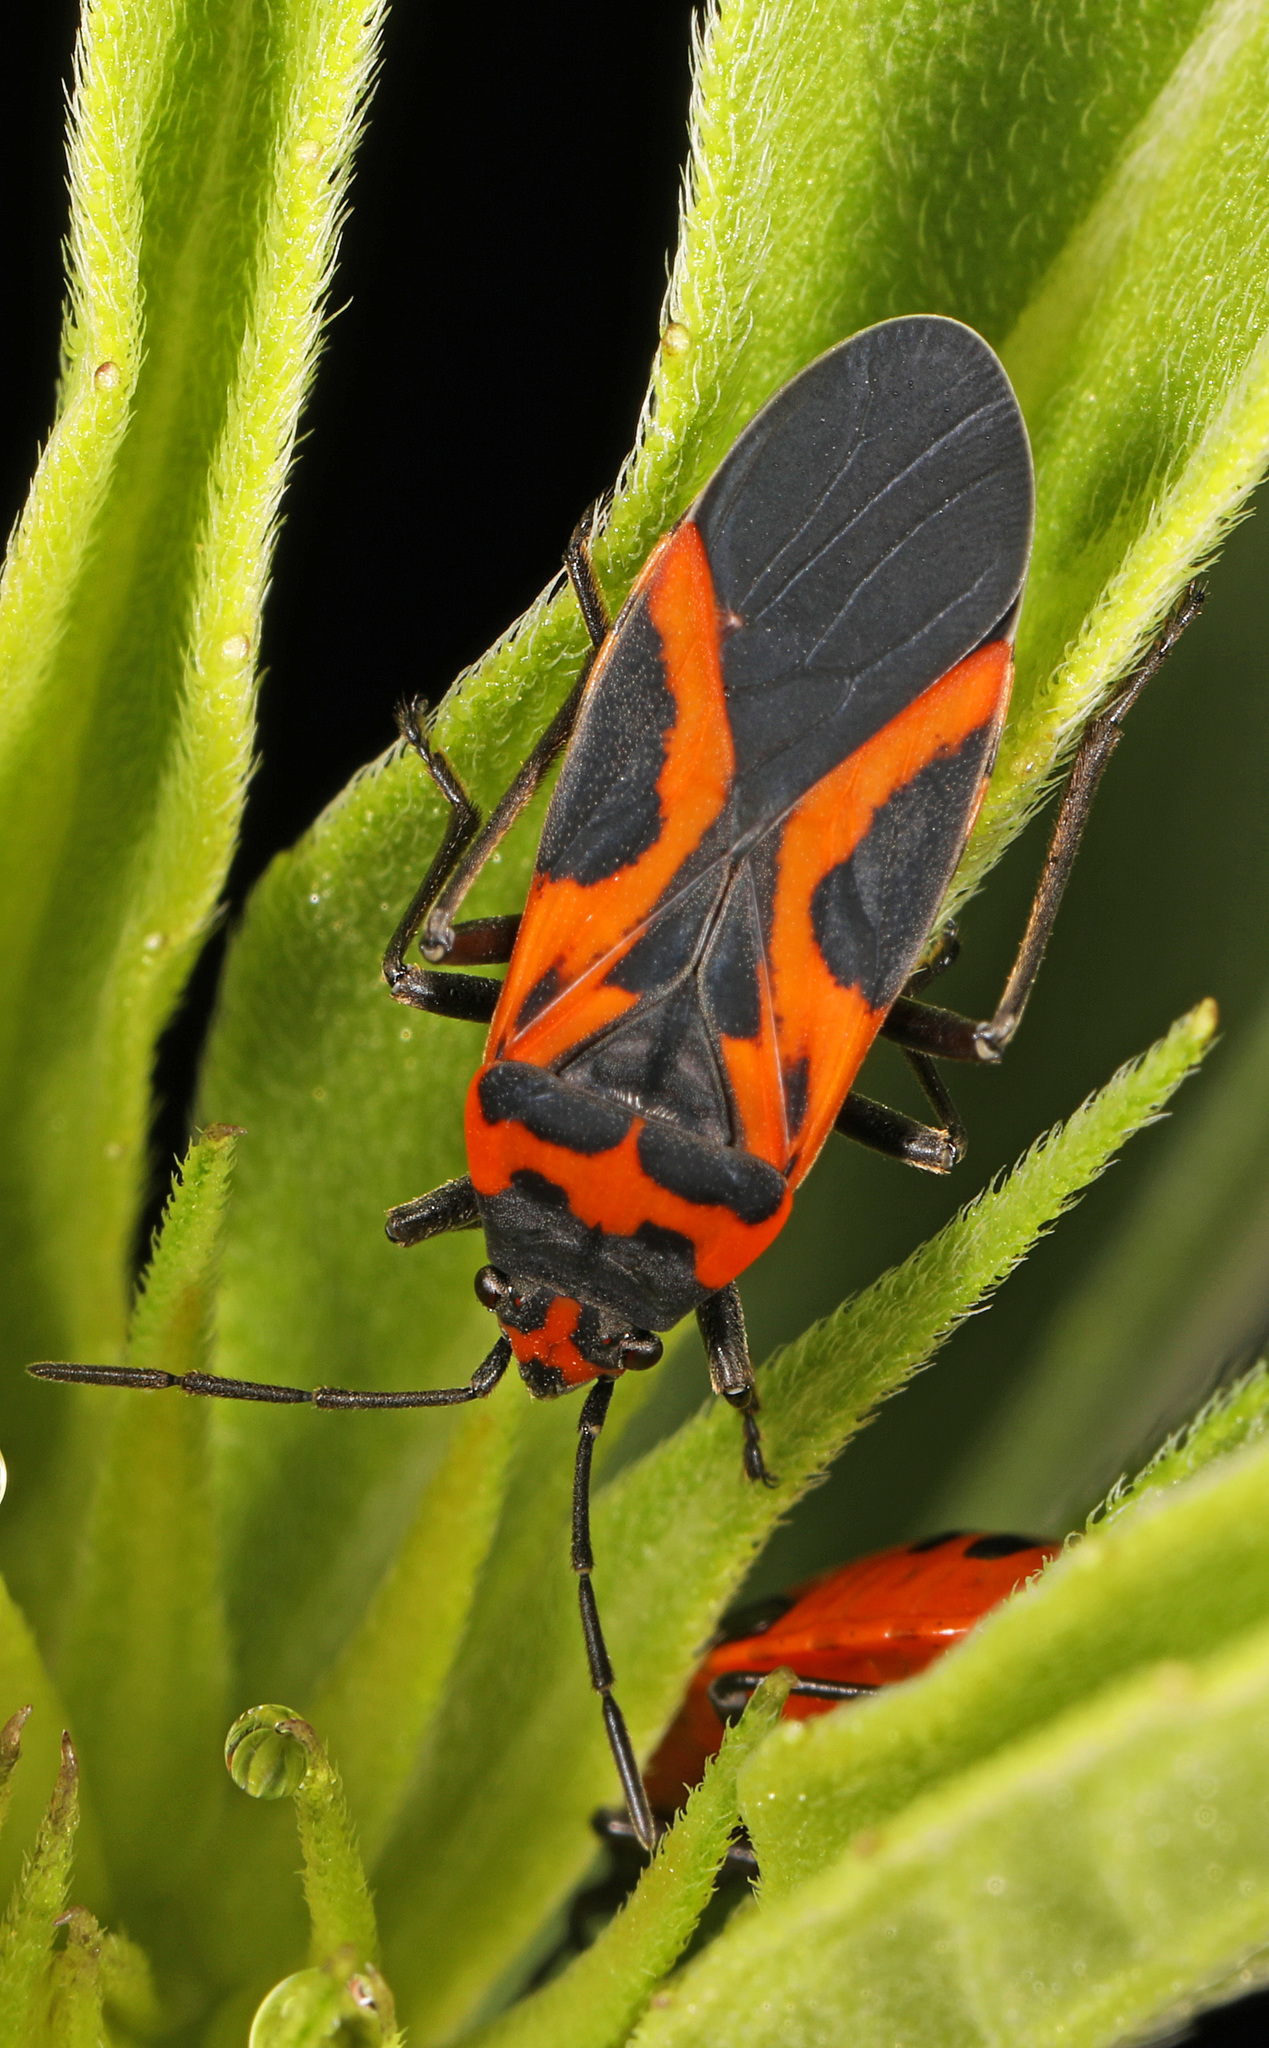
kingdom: Animalia
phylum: Arthropoda
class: Insecta
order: Hemiptera
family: Lygaeidae
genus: Lygaeus
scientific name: Lygaeus turcicus
